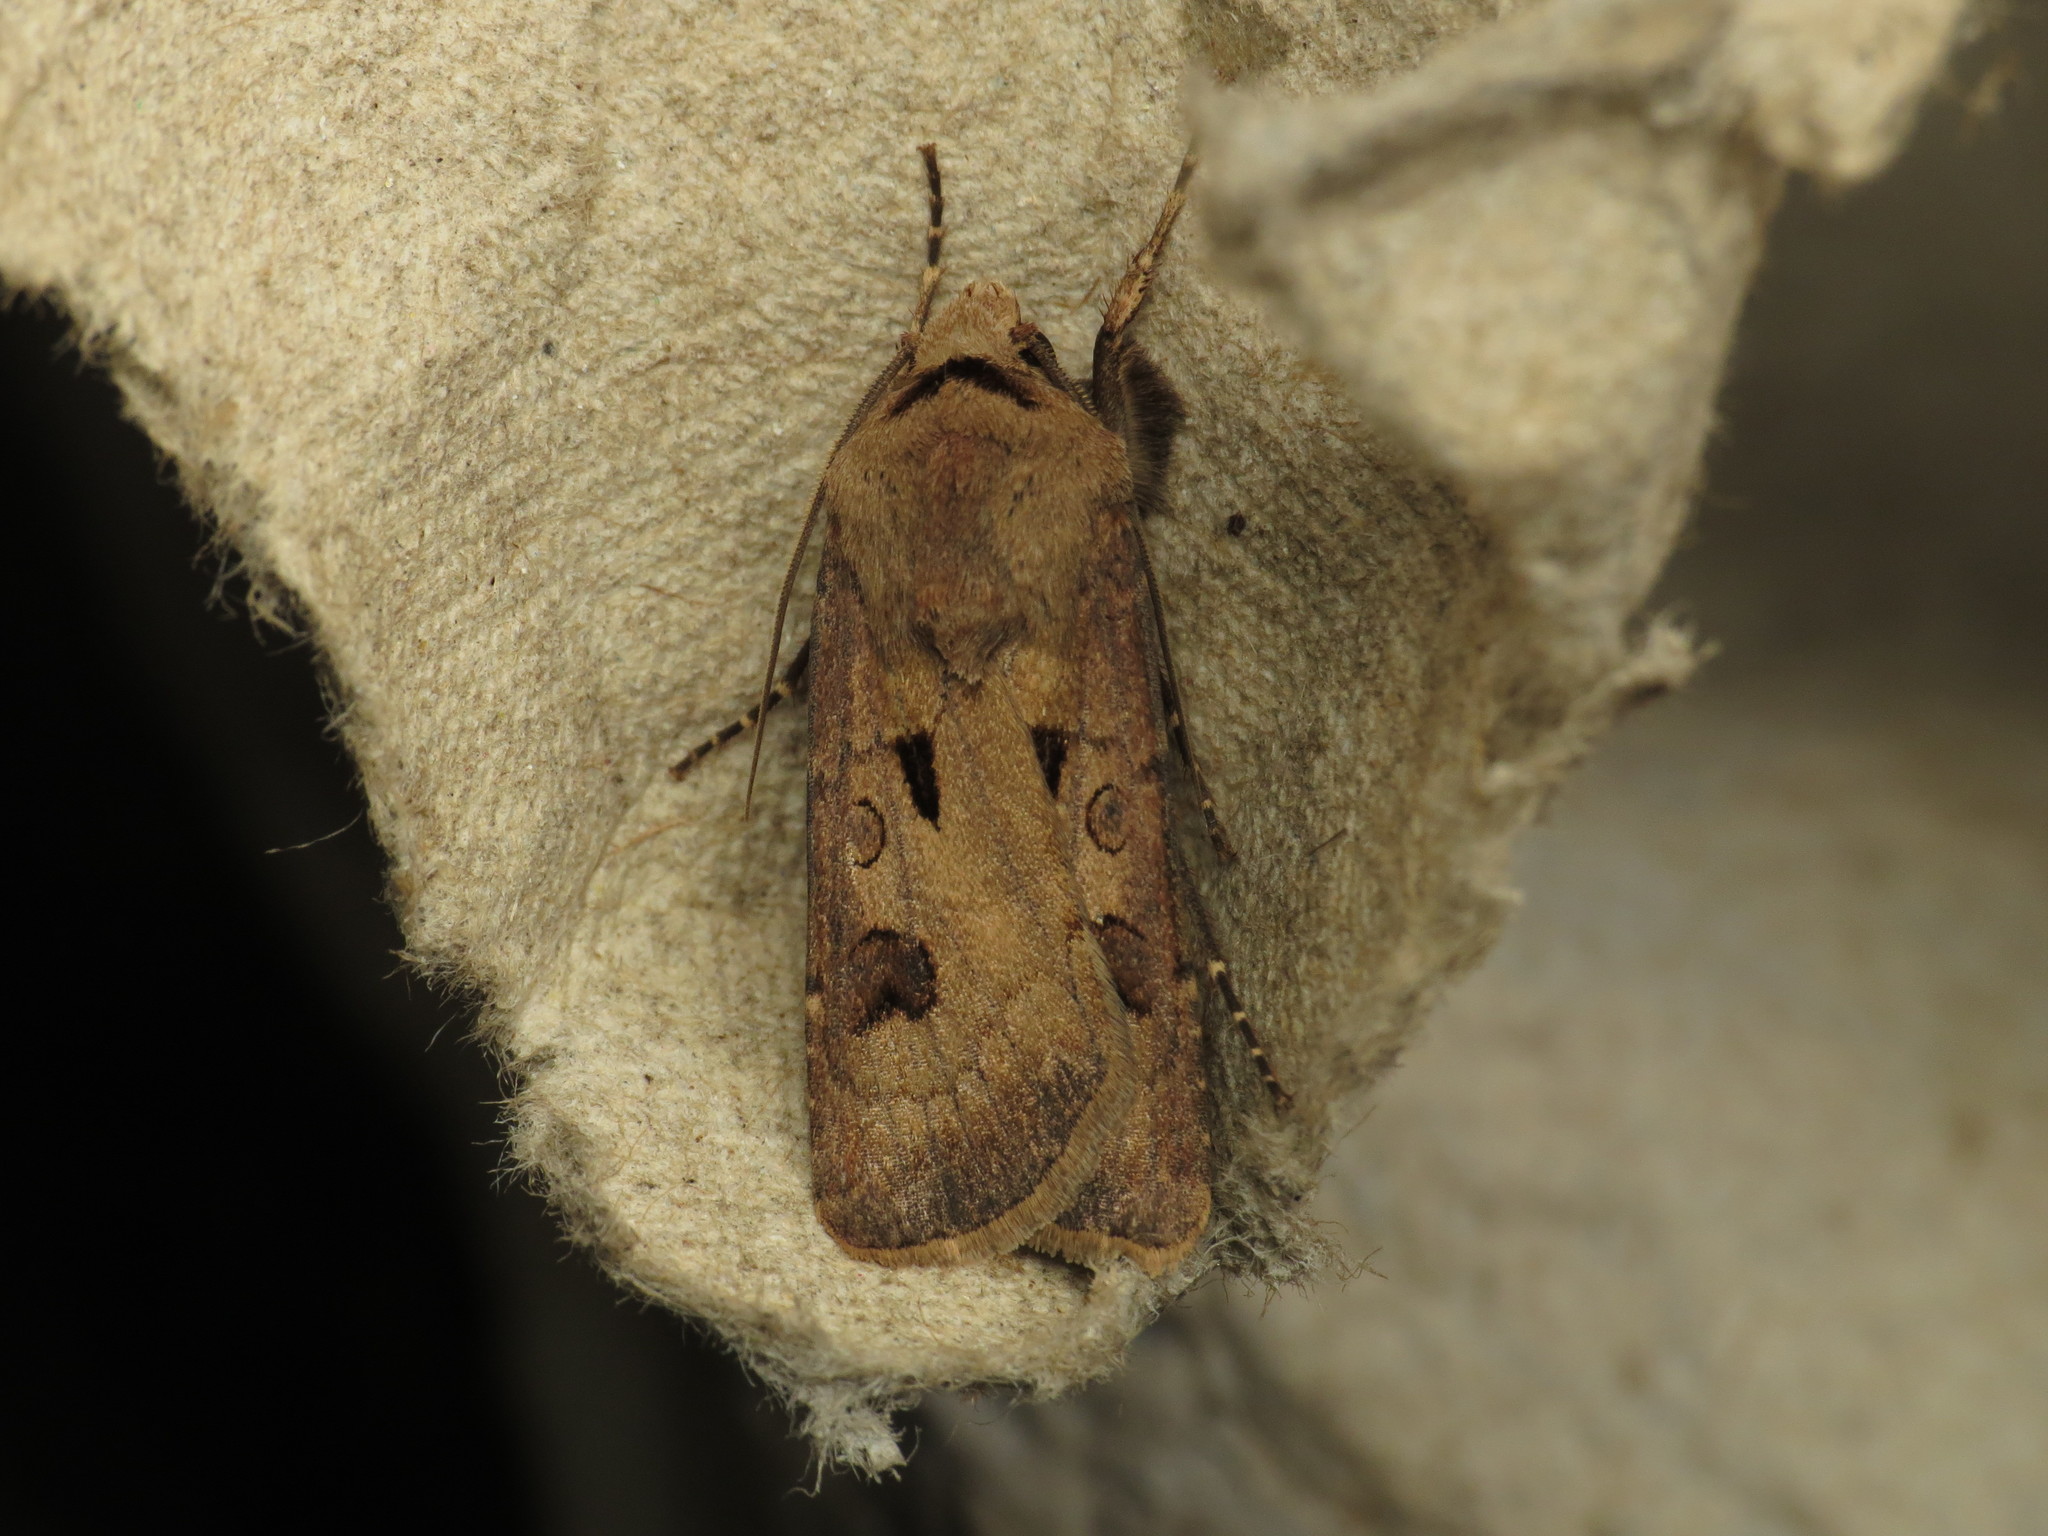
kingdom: Animalia
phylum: Arthropoda
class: Insecta
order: Lepidoptera
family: Noctuidae
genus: Agrotis
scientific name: Agrotis exclamationis
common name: Heart and dart
